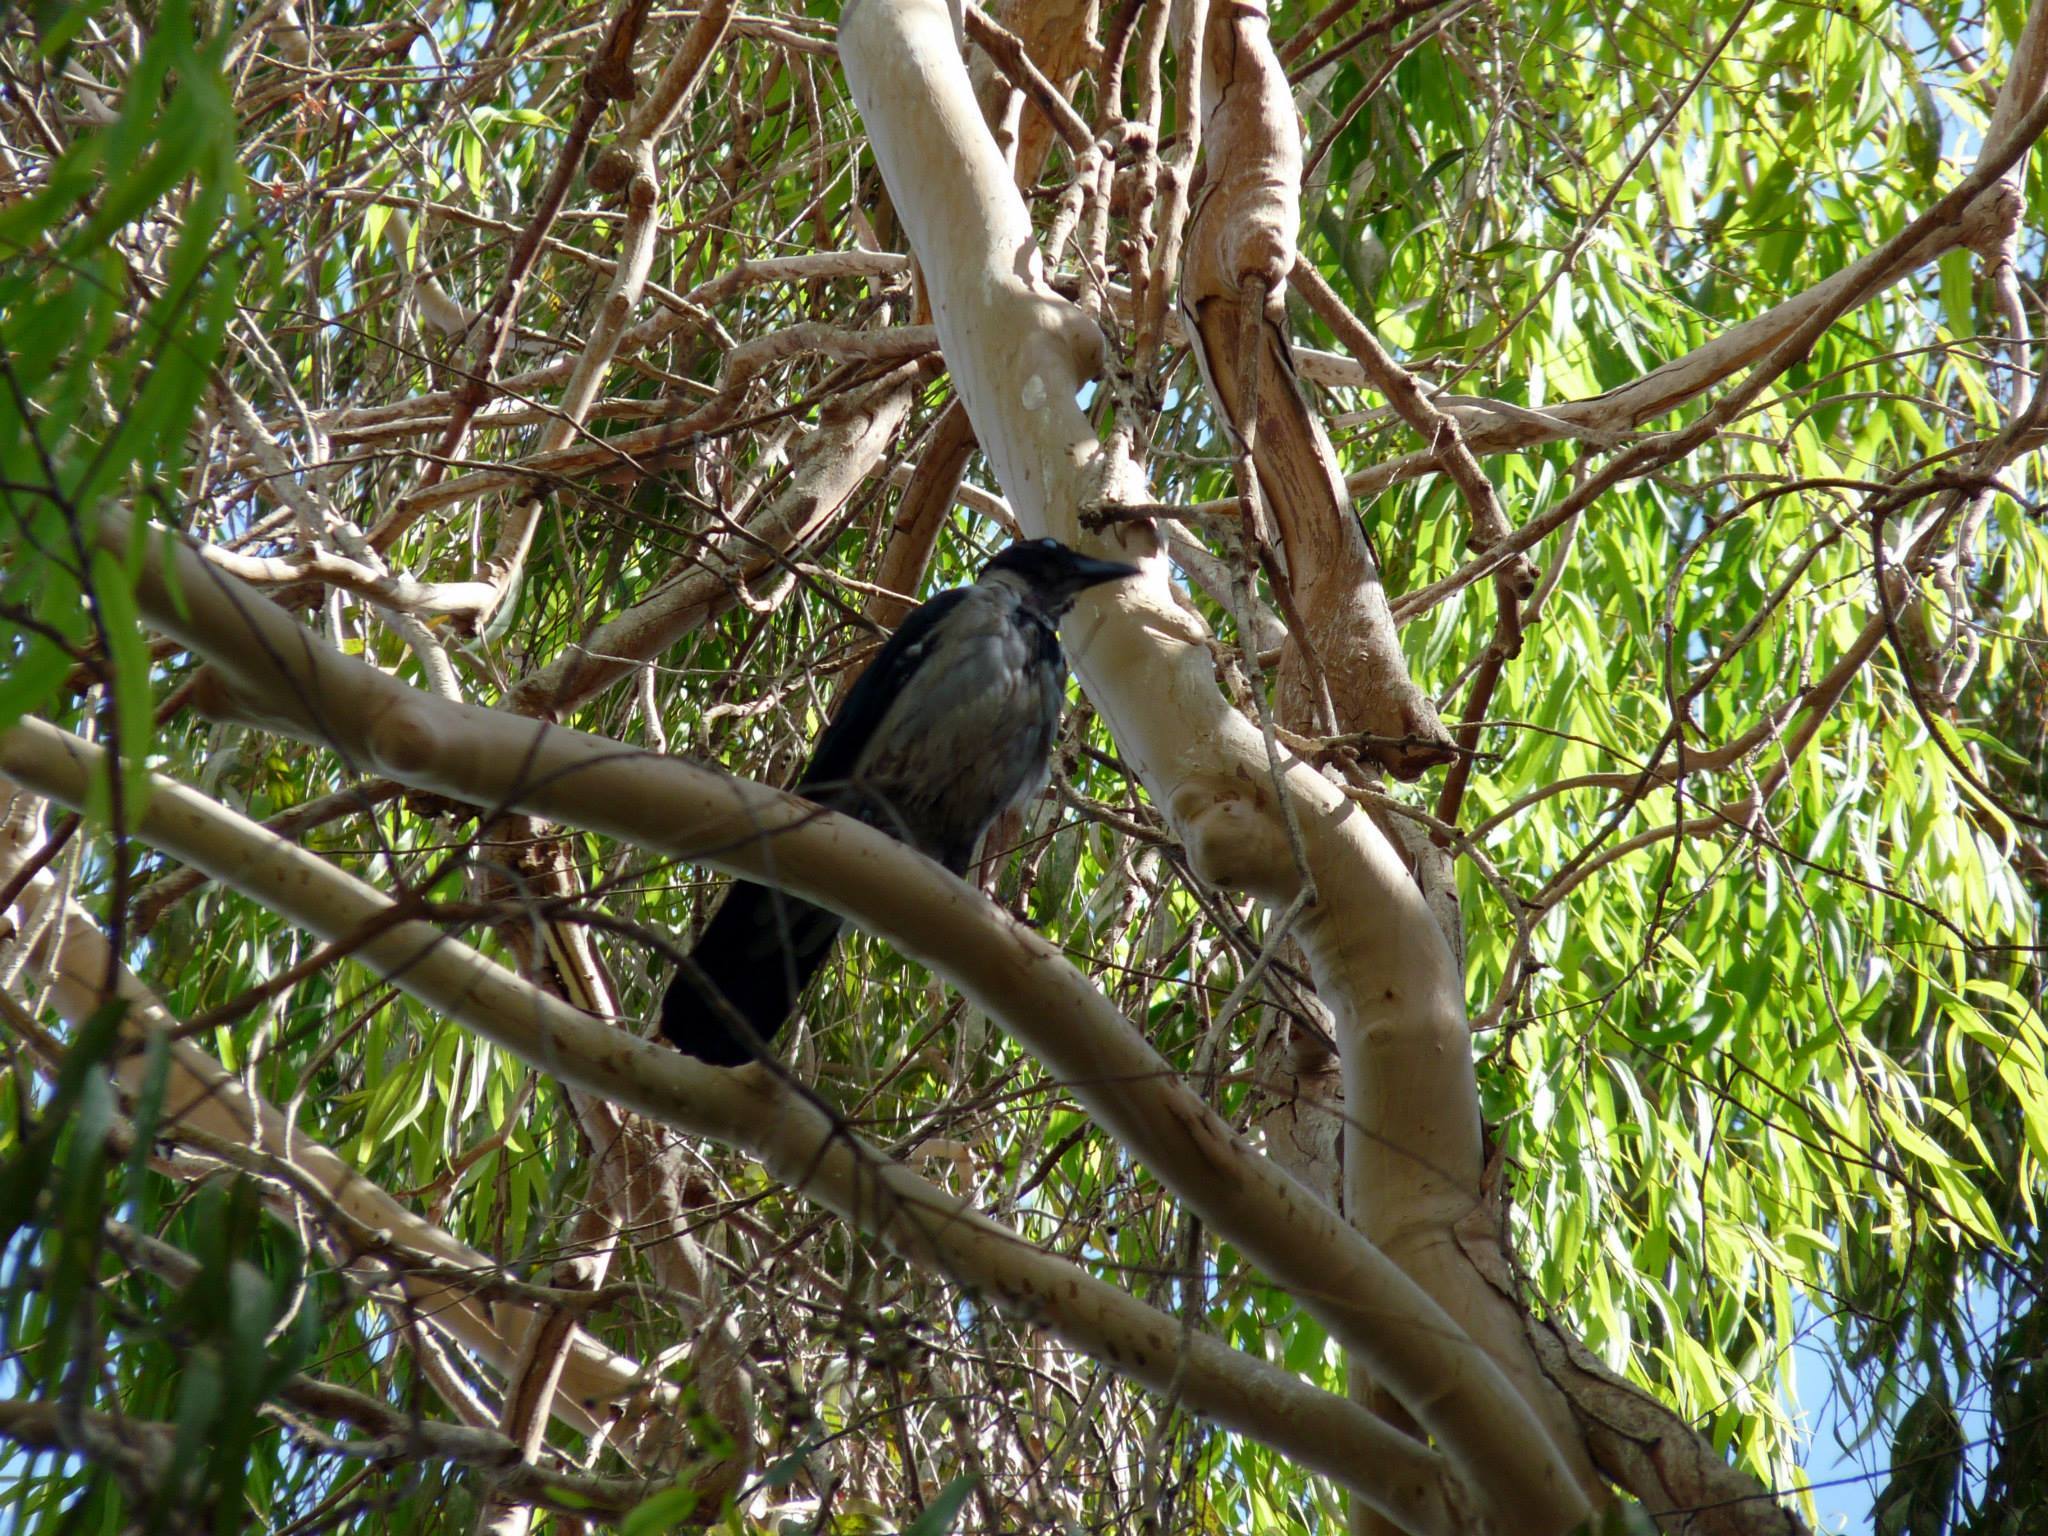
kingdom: Animalia
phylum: Chordata
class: Aves
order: Passeriformes
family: Corvidae
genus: Corvus
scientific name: Corvus cornix
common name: Hooded crow
